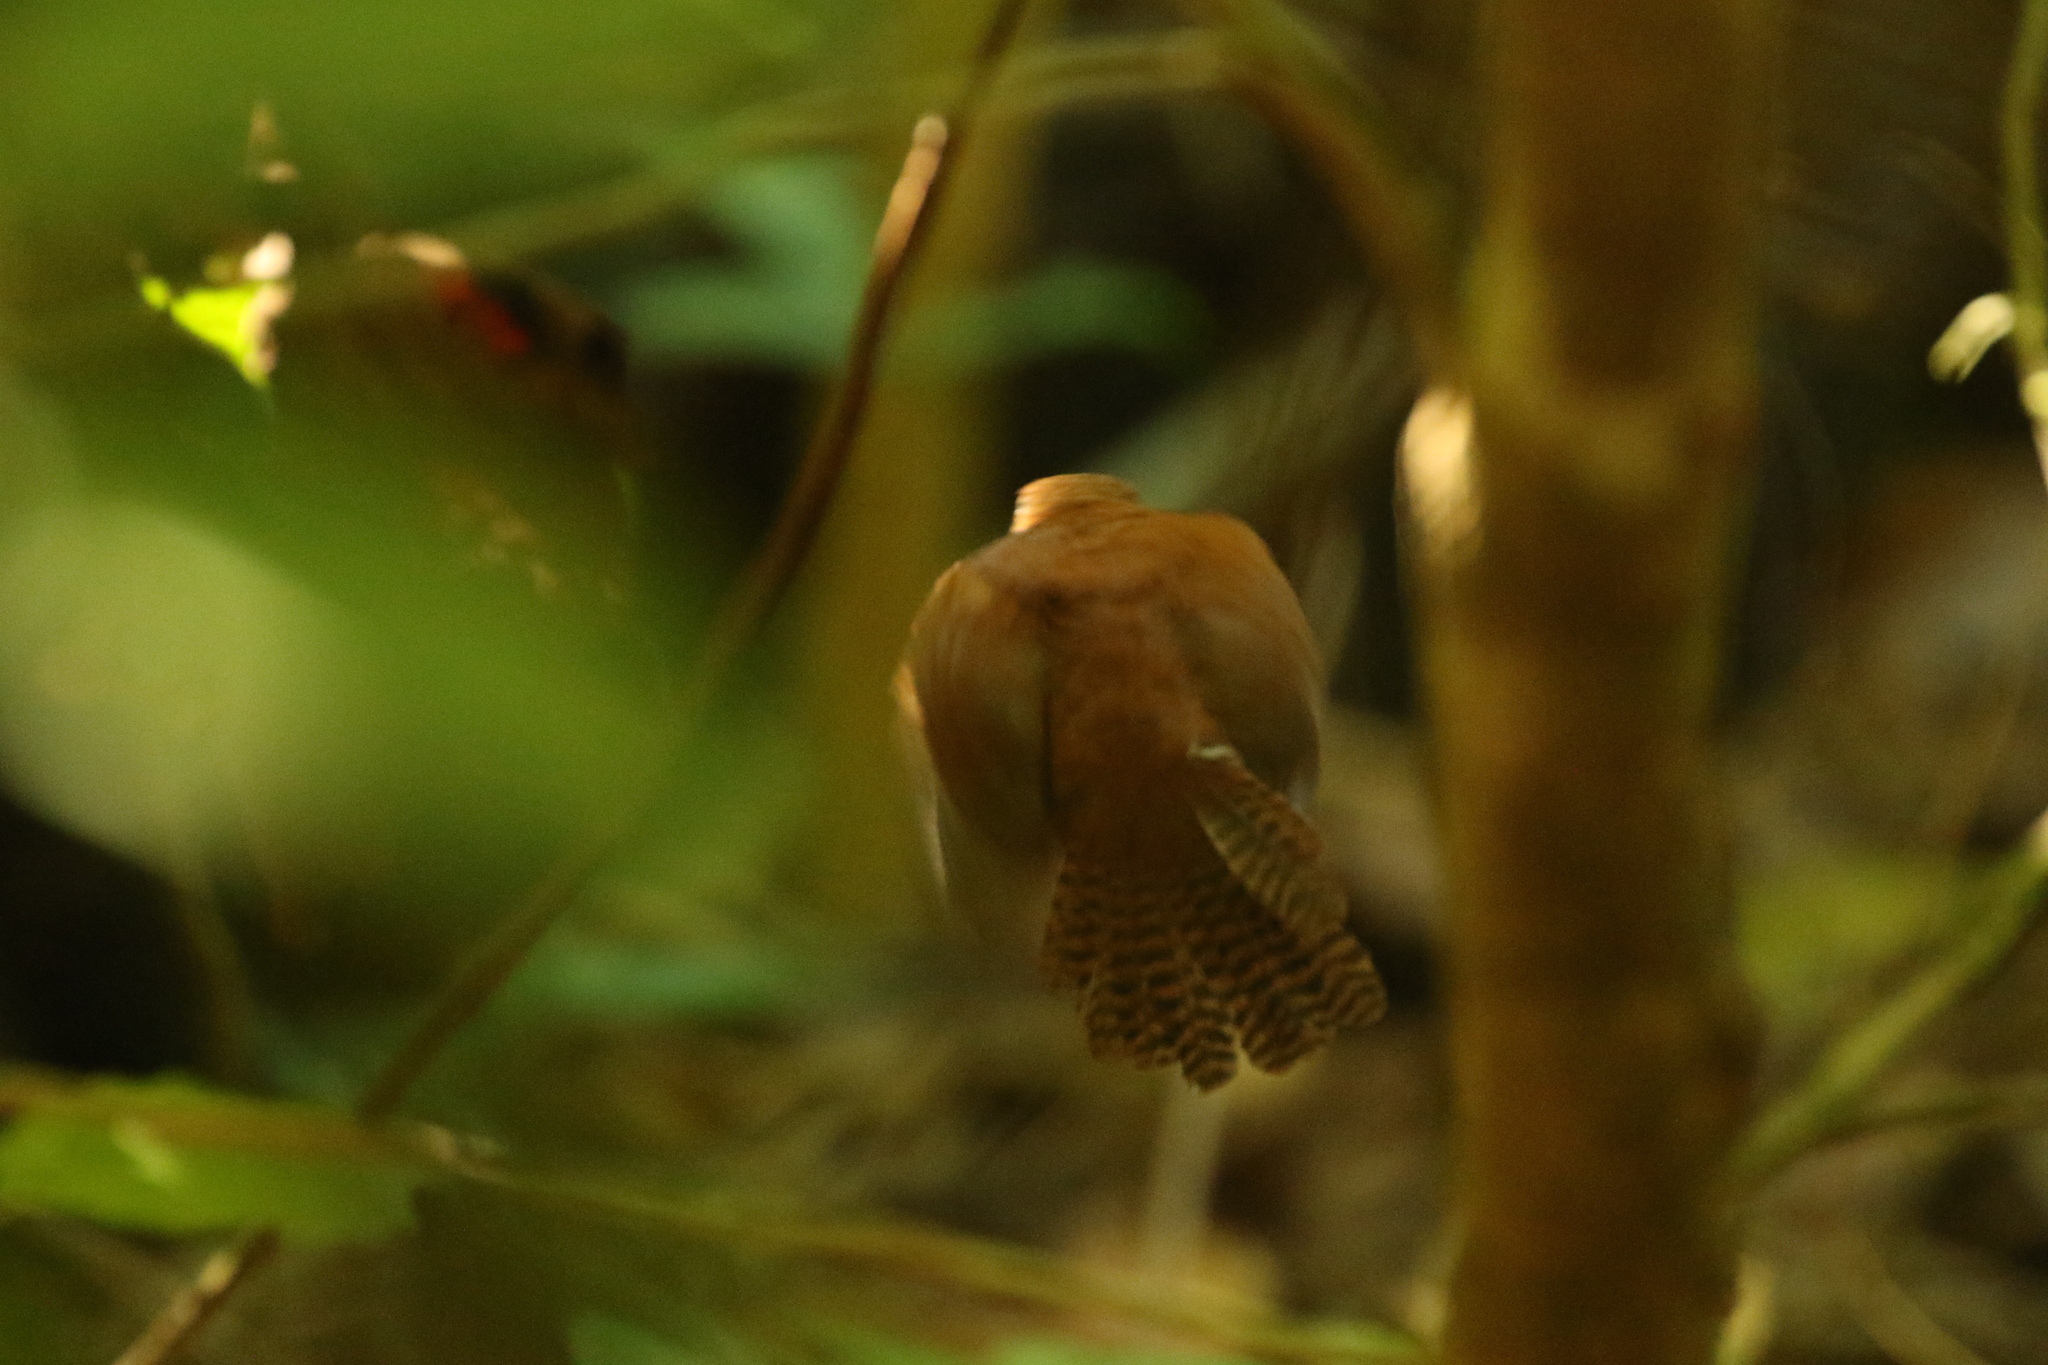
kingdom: Animalia
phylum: Chordata
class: Aves
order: Passeriformes
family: Troglodytidae
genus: Pheugopedius
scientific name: Pheugopedius fasciatoventris
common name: Black-bellied wren
